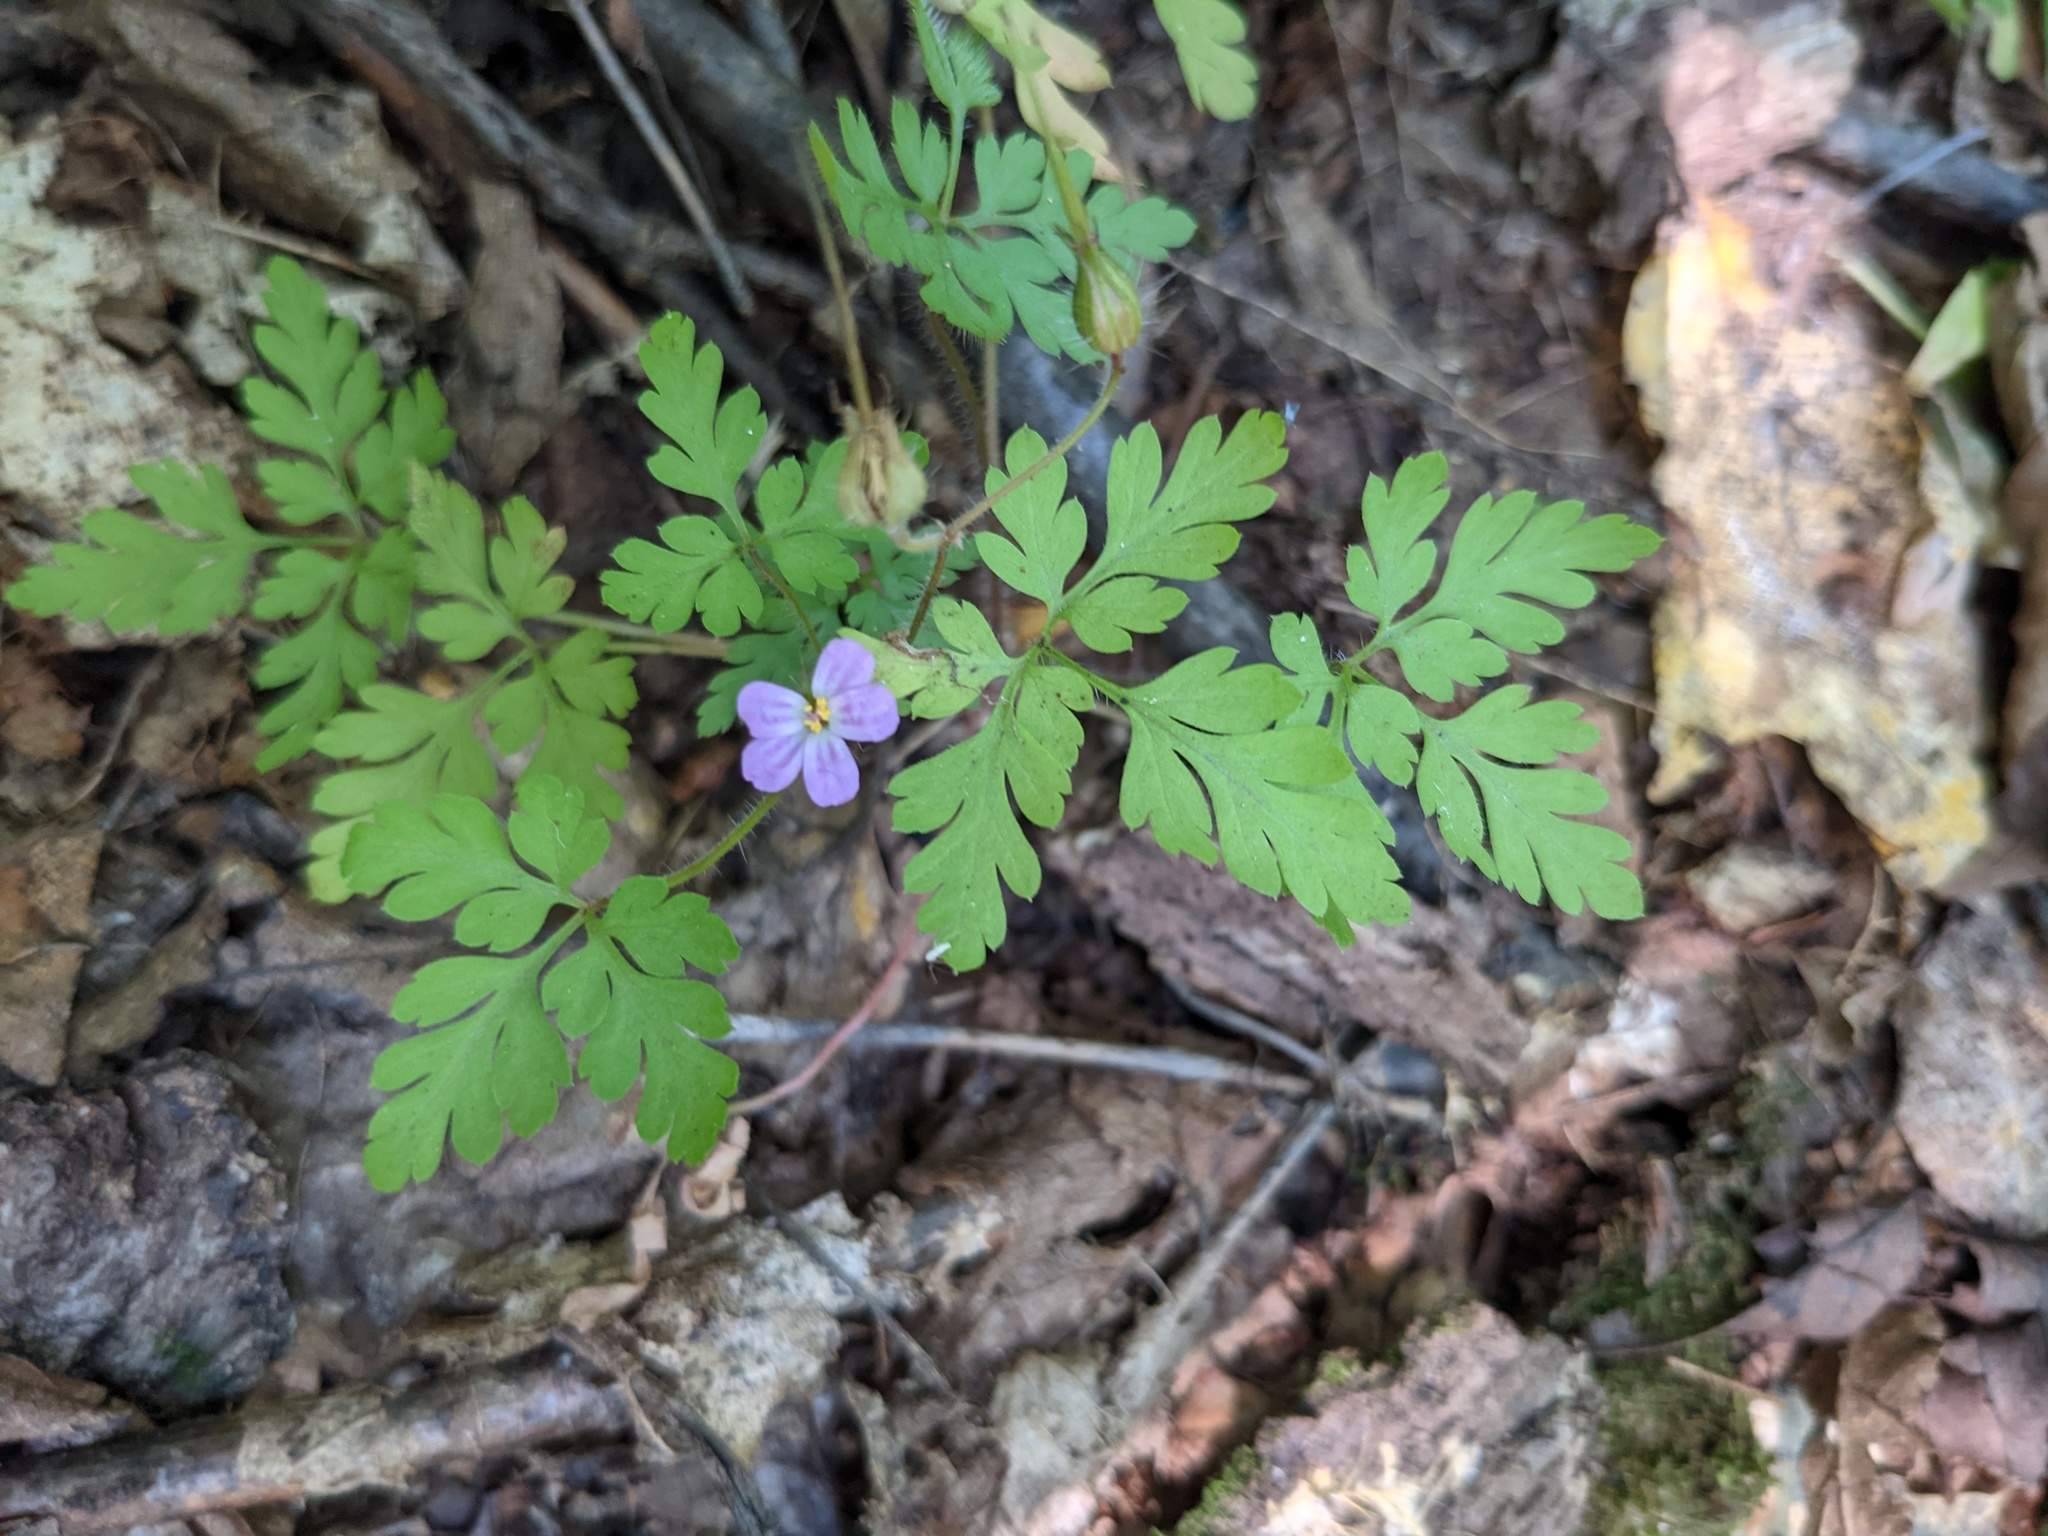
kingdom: Plantae
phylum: Tracheophyta
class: Magnoliopsida
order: Geraniales
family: Geraniaceae
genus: Geranium
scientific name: Geranium robertianum
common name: Herb-robert
